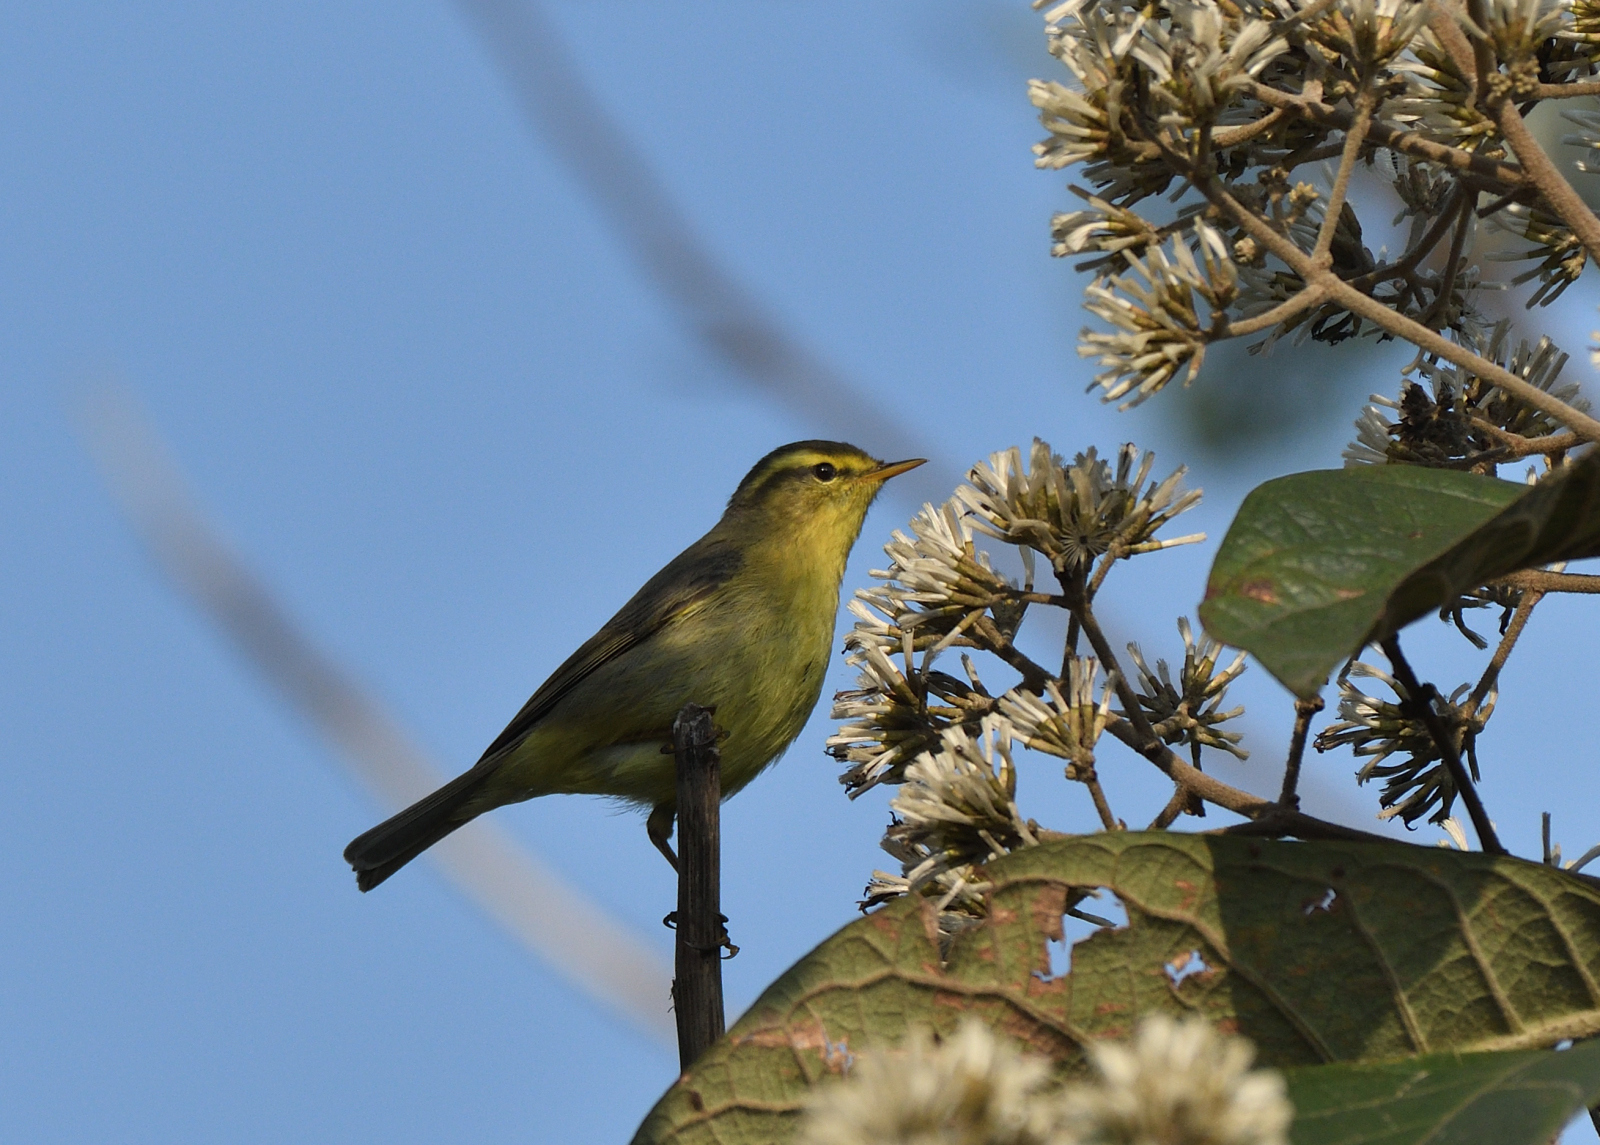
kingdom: Animalia
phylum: Chordata
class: Aves
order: Passeriformes
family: Phylloscopidae
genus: Phylloscopus
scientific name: Phylloscopus affinis
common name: Tickell's leaf warbler
